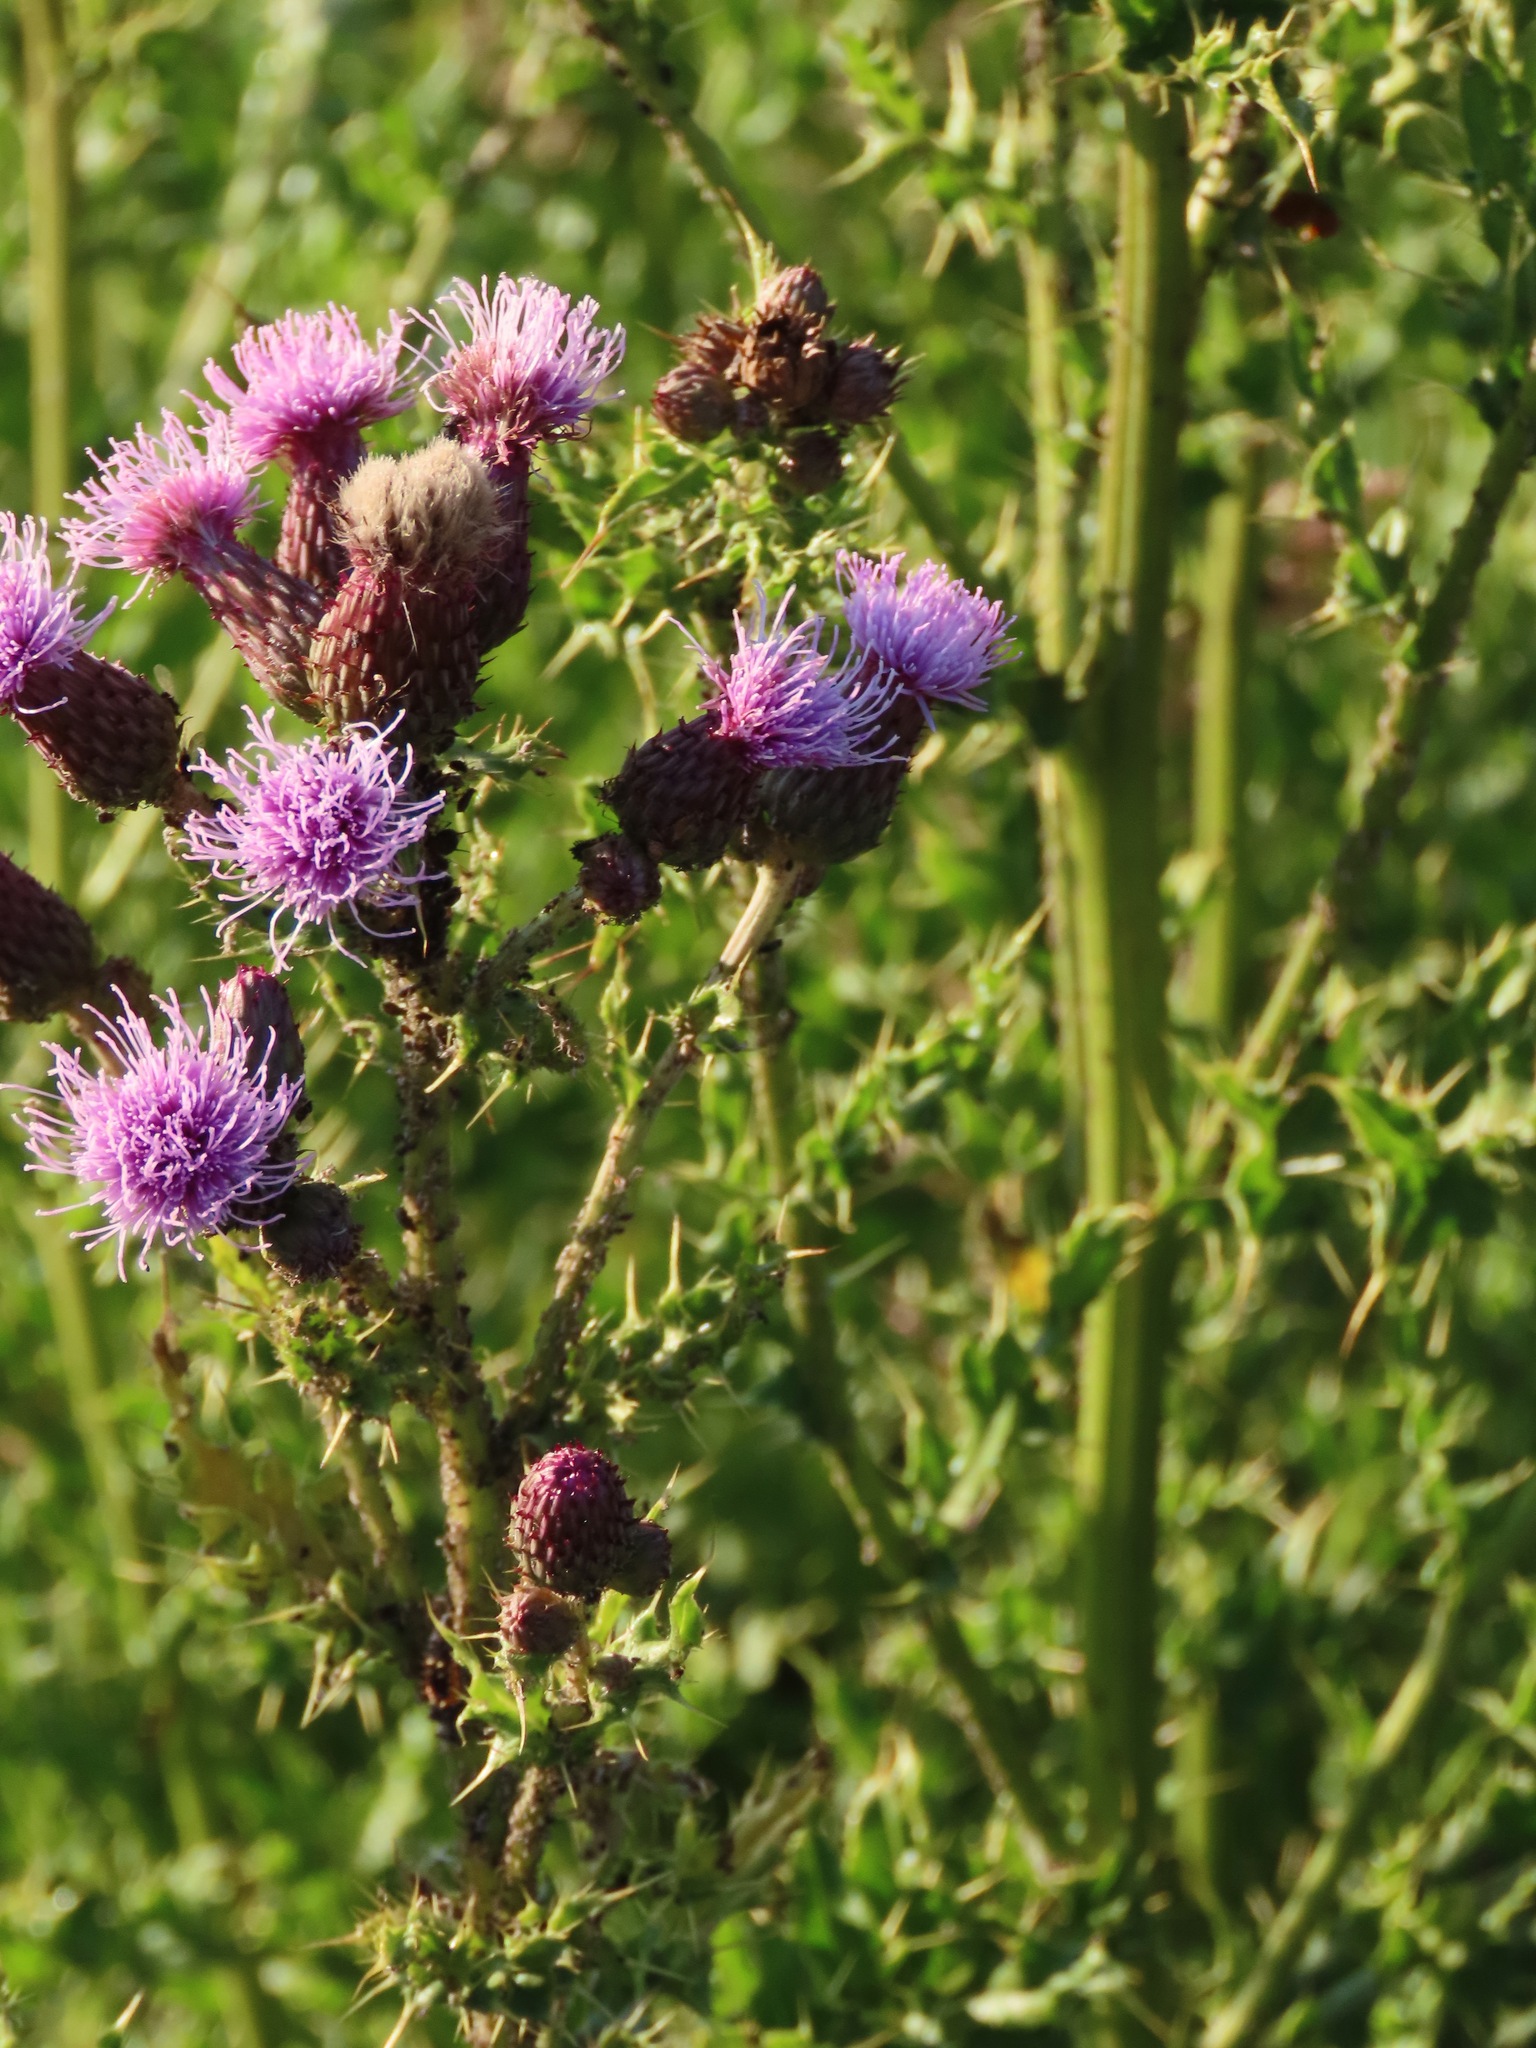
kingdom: Plantae
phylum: Tracheophyta
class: Magnoliopsida
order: Asterales
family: Asteraceae
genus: Cirsium
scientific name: Cirsium arvense
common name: Creeping thistle
